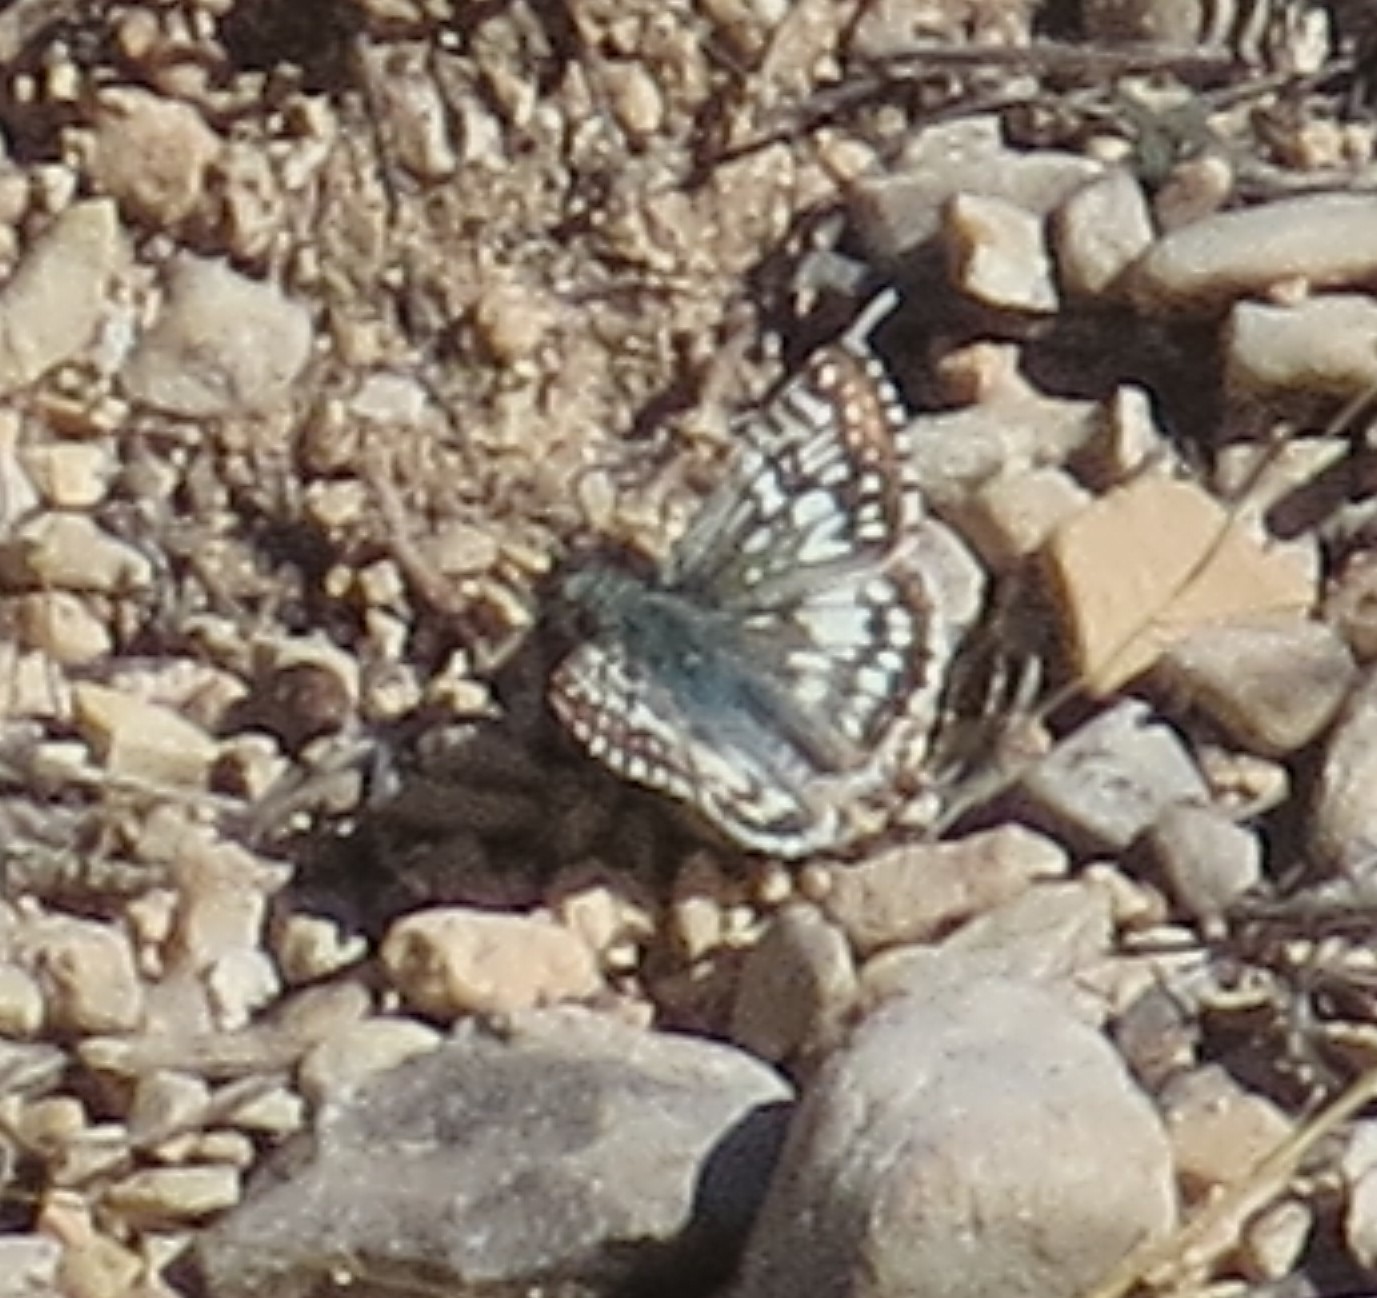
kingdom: Animalia
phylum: Arthropoda
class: Insecta
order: Lepidoptera
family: Hesperiidae
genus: Burnsius
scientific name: Burnsius philetas
